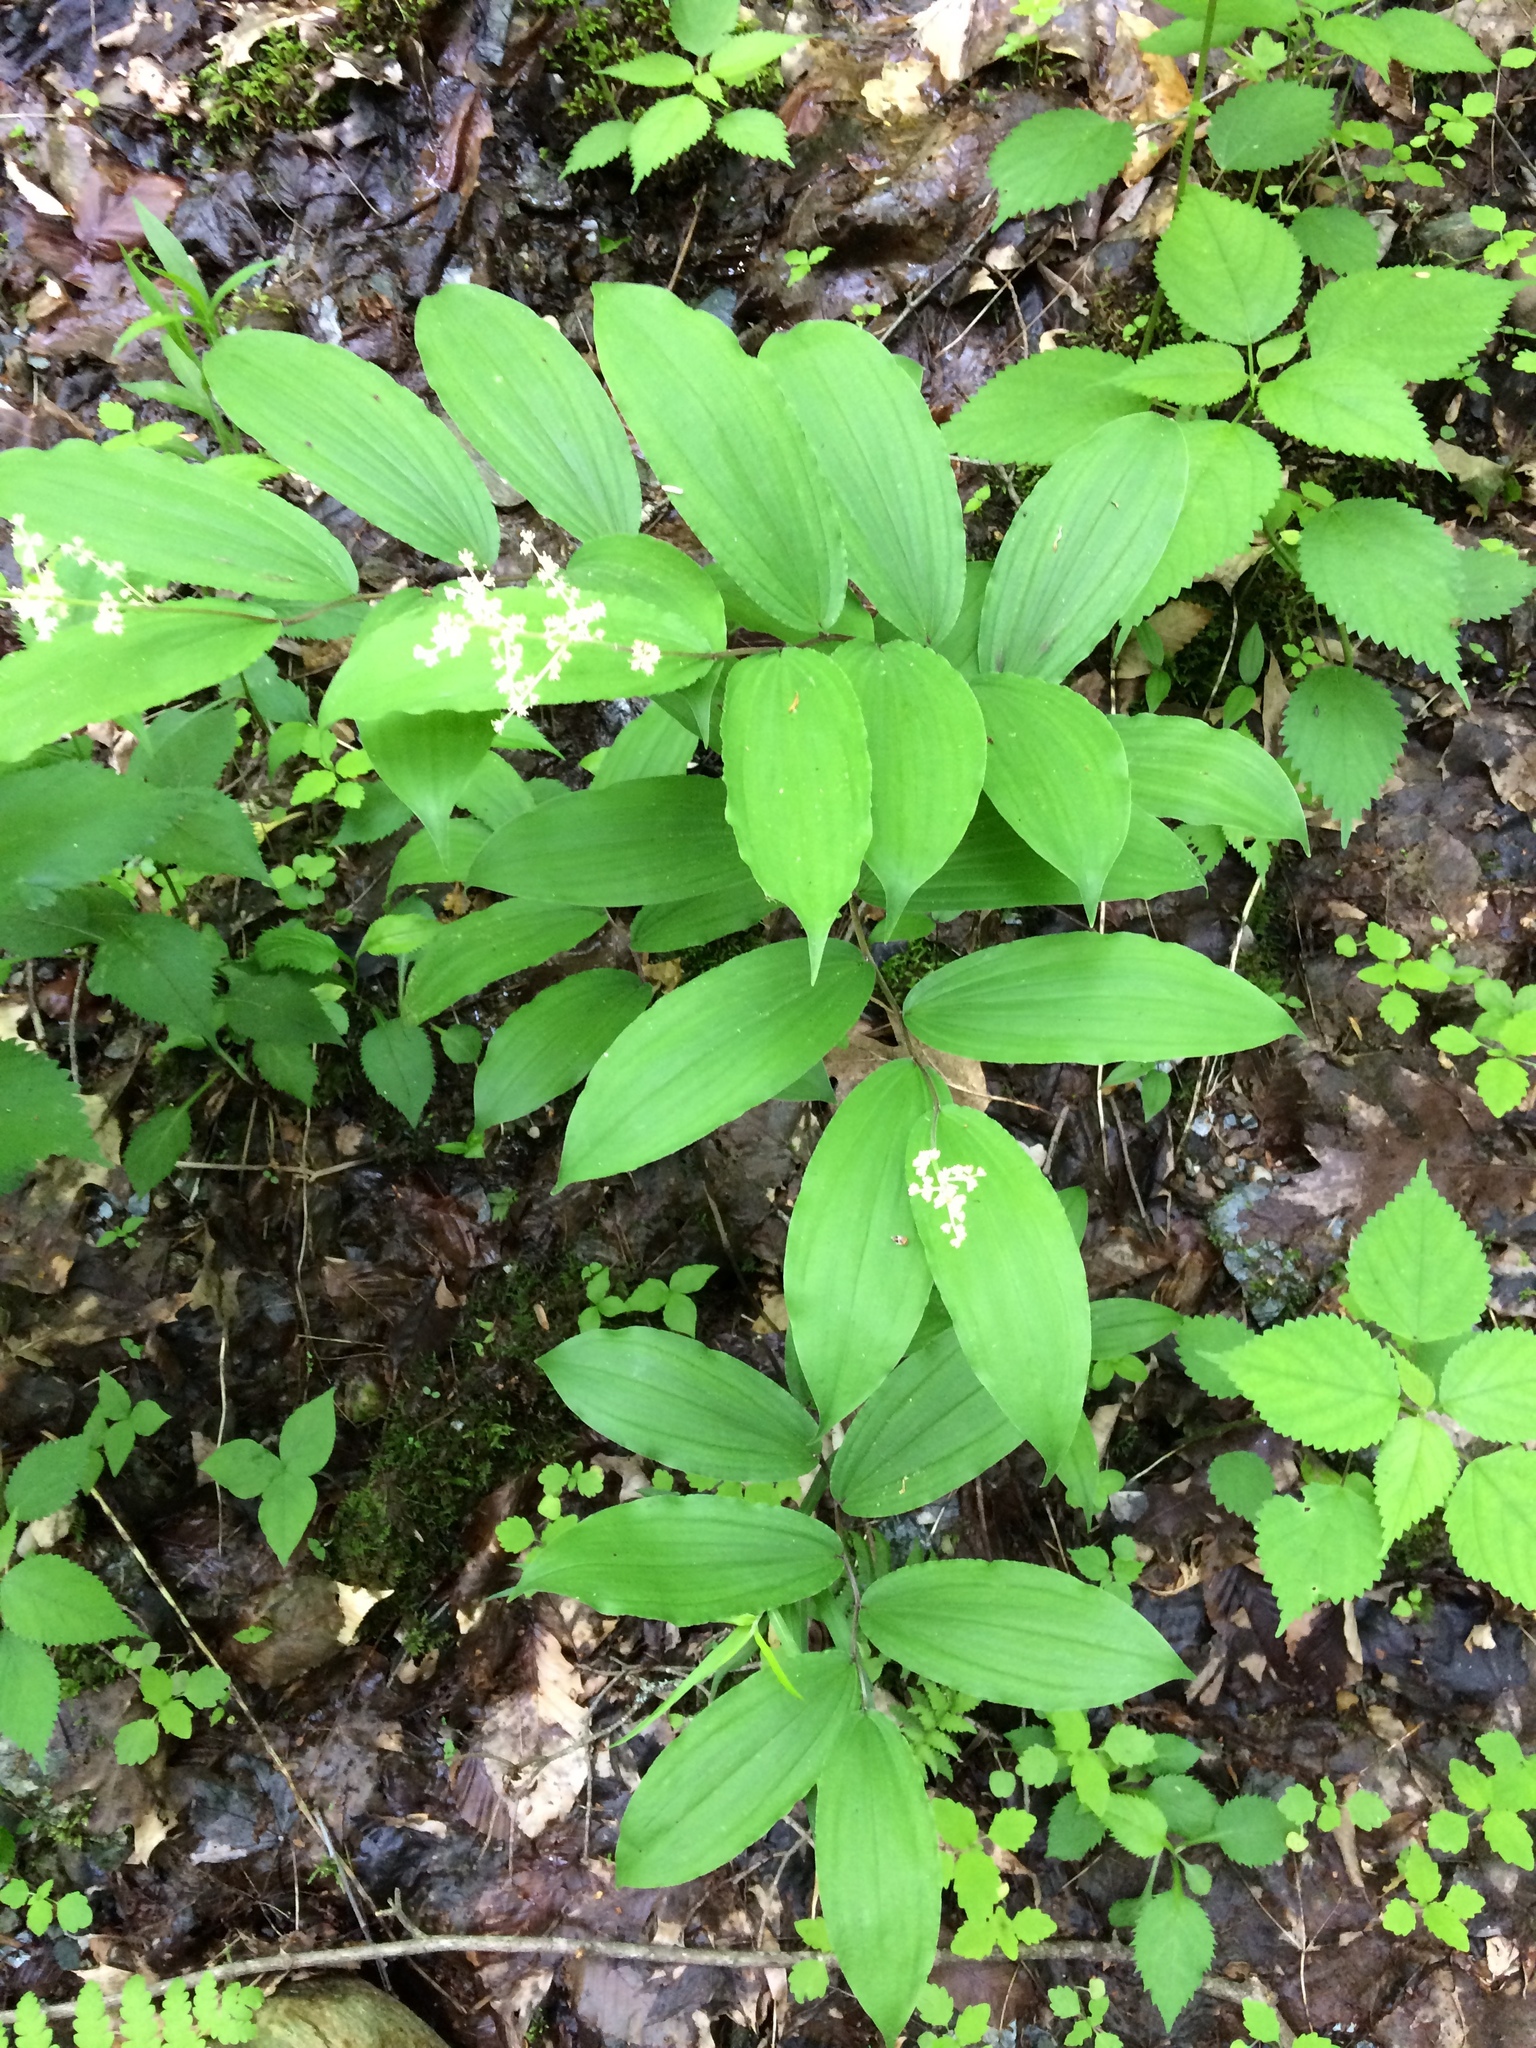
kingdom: Plantae
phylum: Tracheophyta
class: Liliopsida
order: Asparagales
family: Asparagaceae
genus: Maianthemum
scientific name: Maianthemum racemosum
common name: False spikenard
